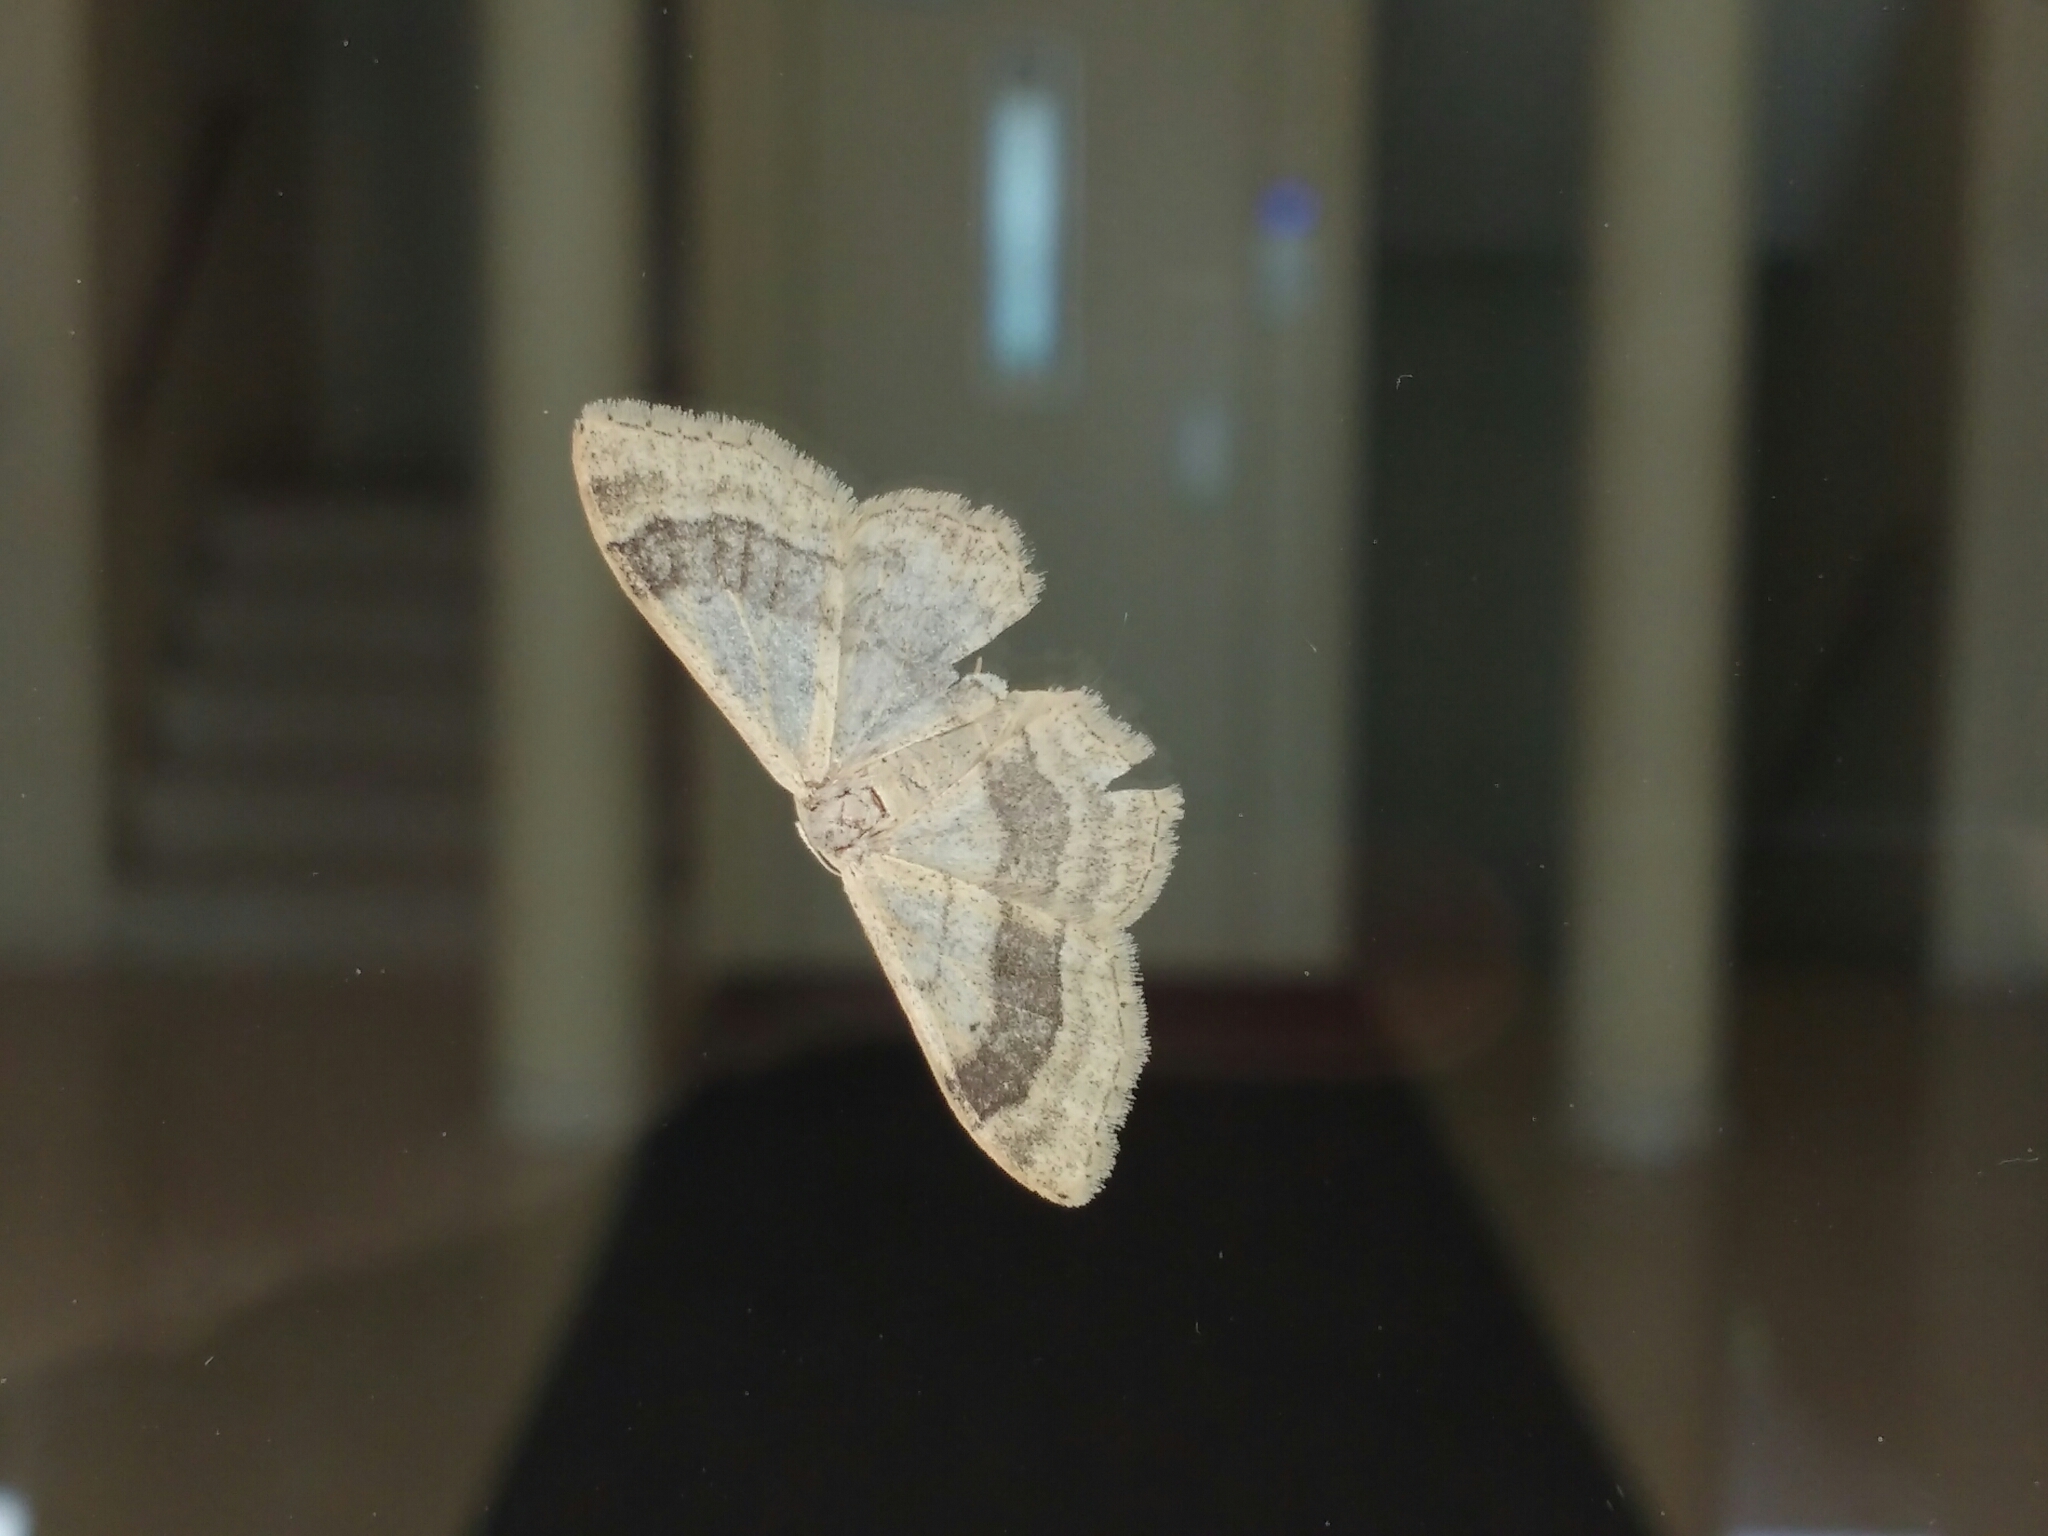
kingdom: Animalia
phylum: Arthropoda
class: Insecta
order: Lepidoptera
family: Geometridae
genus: Idaea
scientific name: Idaea aversata
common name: Riband wave
